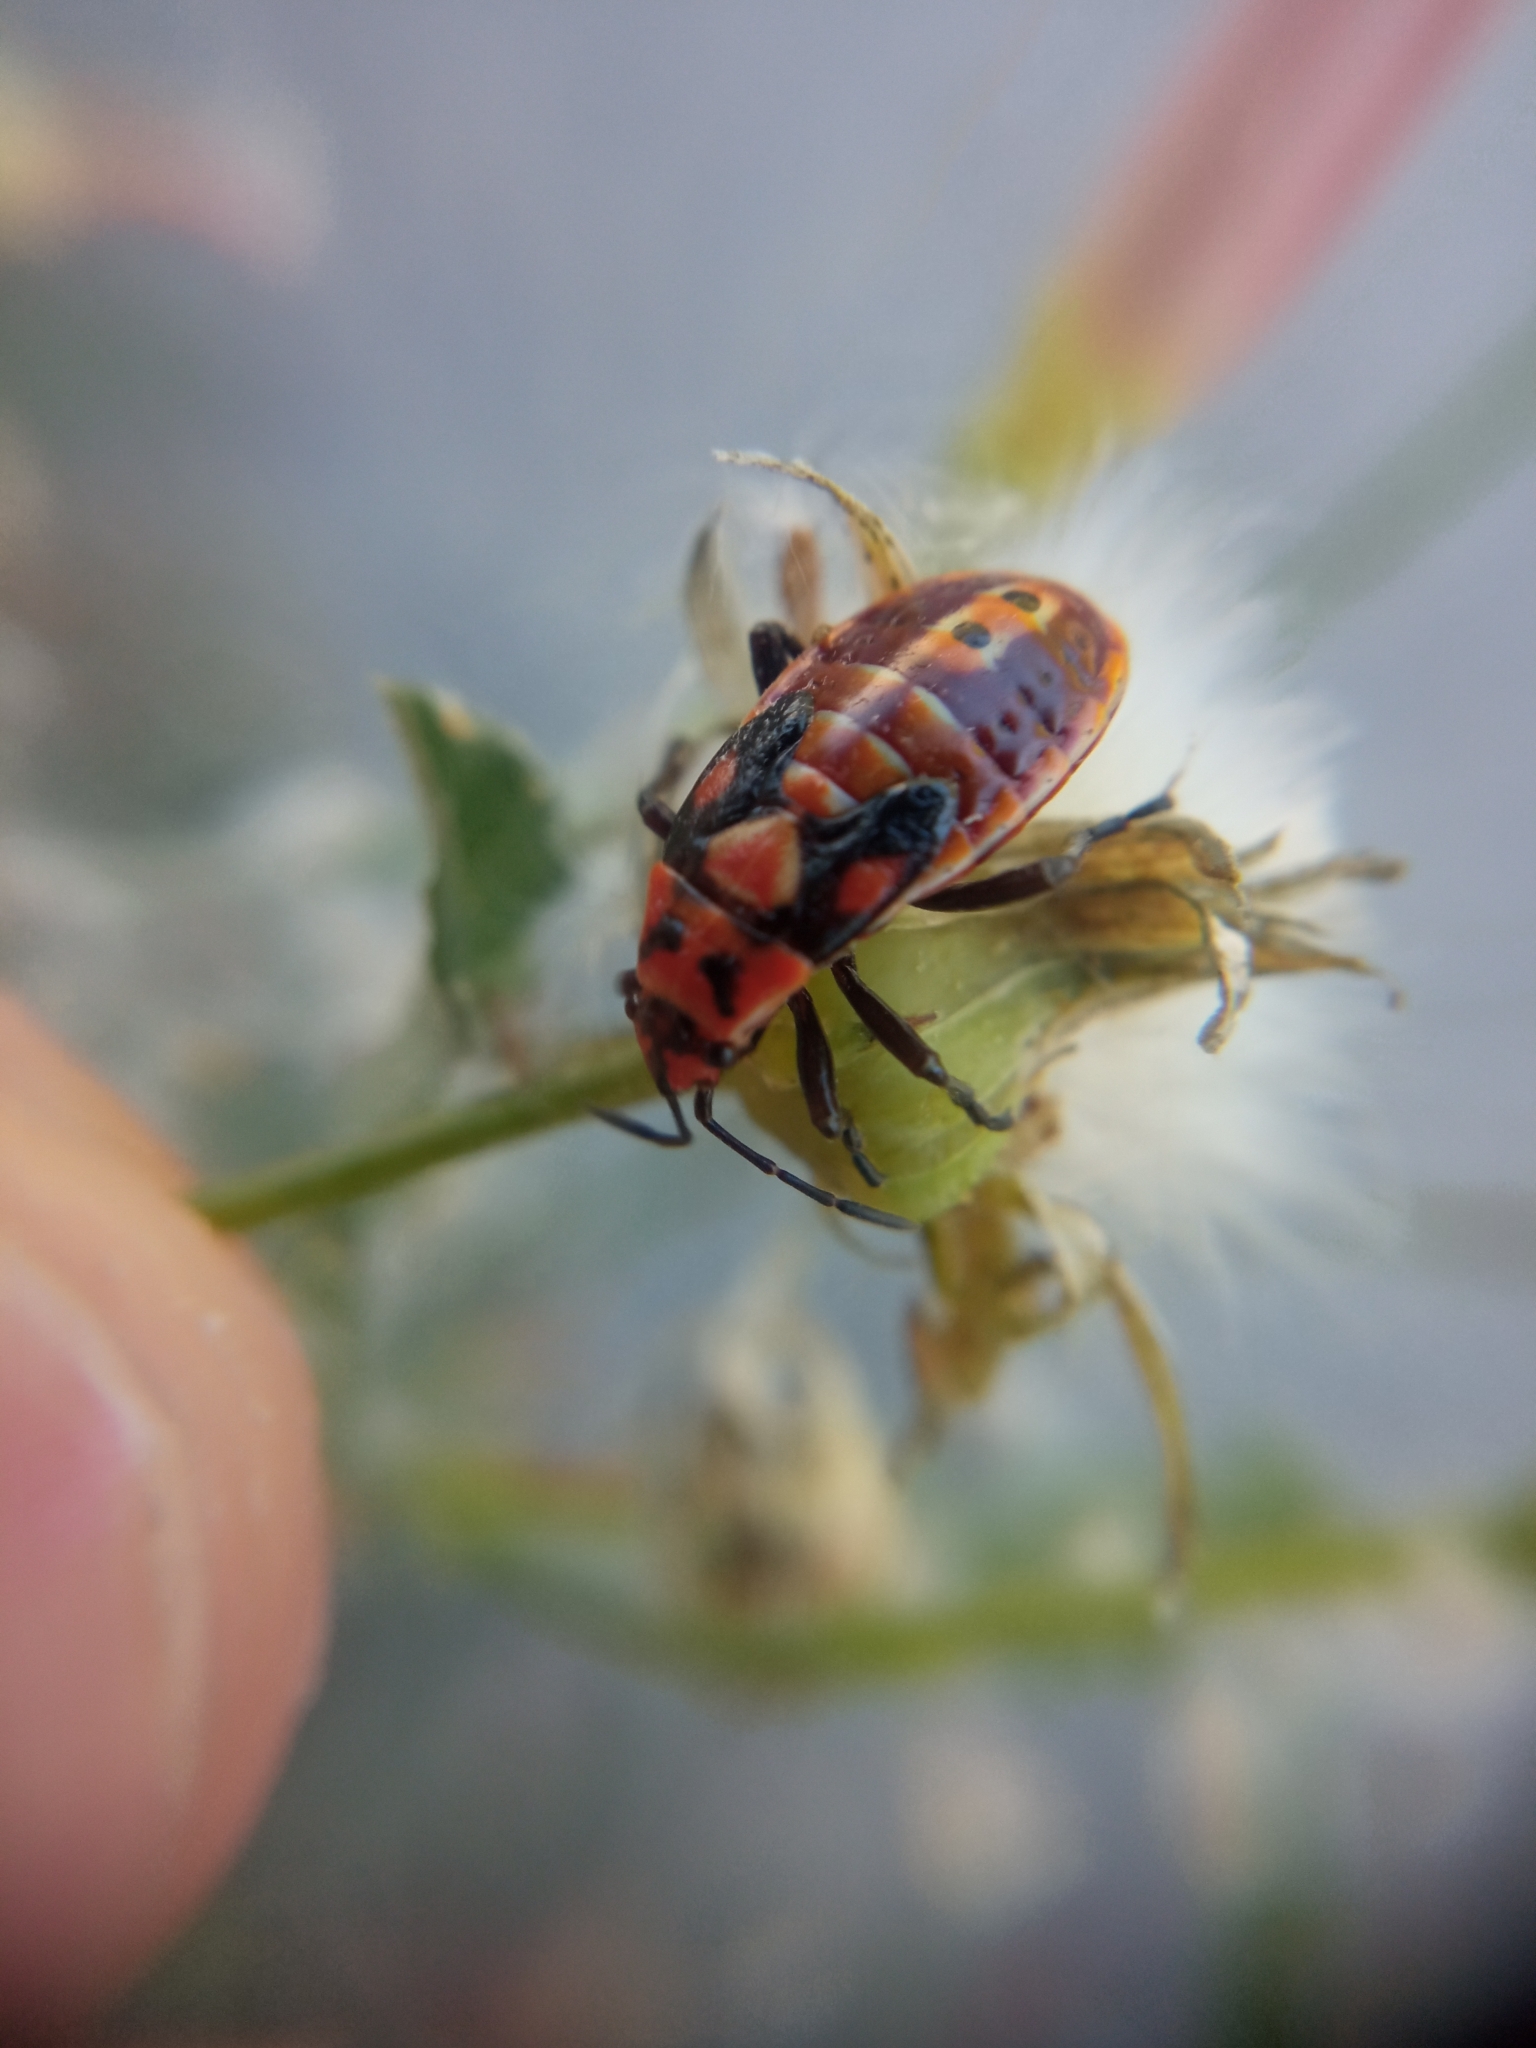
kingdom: Animalia
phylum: Arthropoda
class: Insecta
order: Hemiptera
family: Lygaeidae
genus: Spilostethus
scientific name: Spilostethus pandurus
